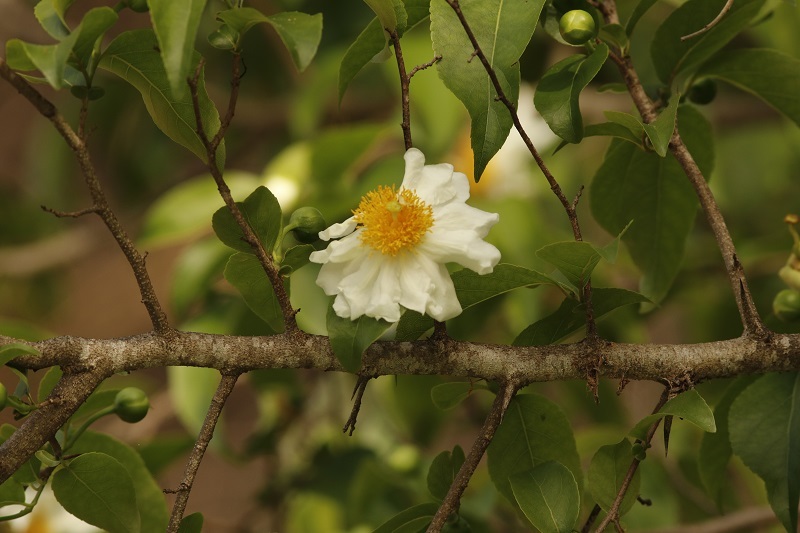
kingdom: Plantae
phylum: Tracheophyta
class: Magnoliopsida
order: Malpighiales
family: Salicaceae
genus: Oncoba
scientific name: Oncoba spinosa
